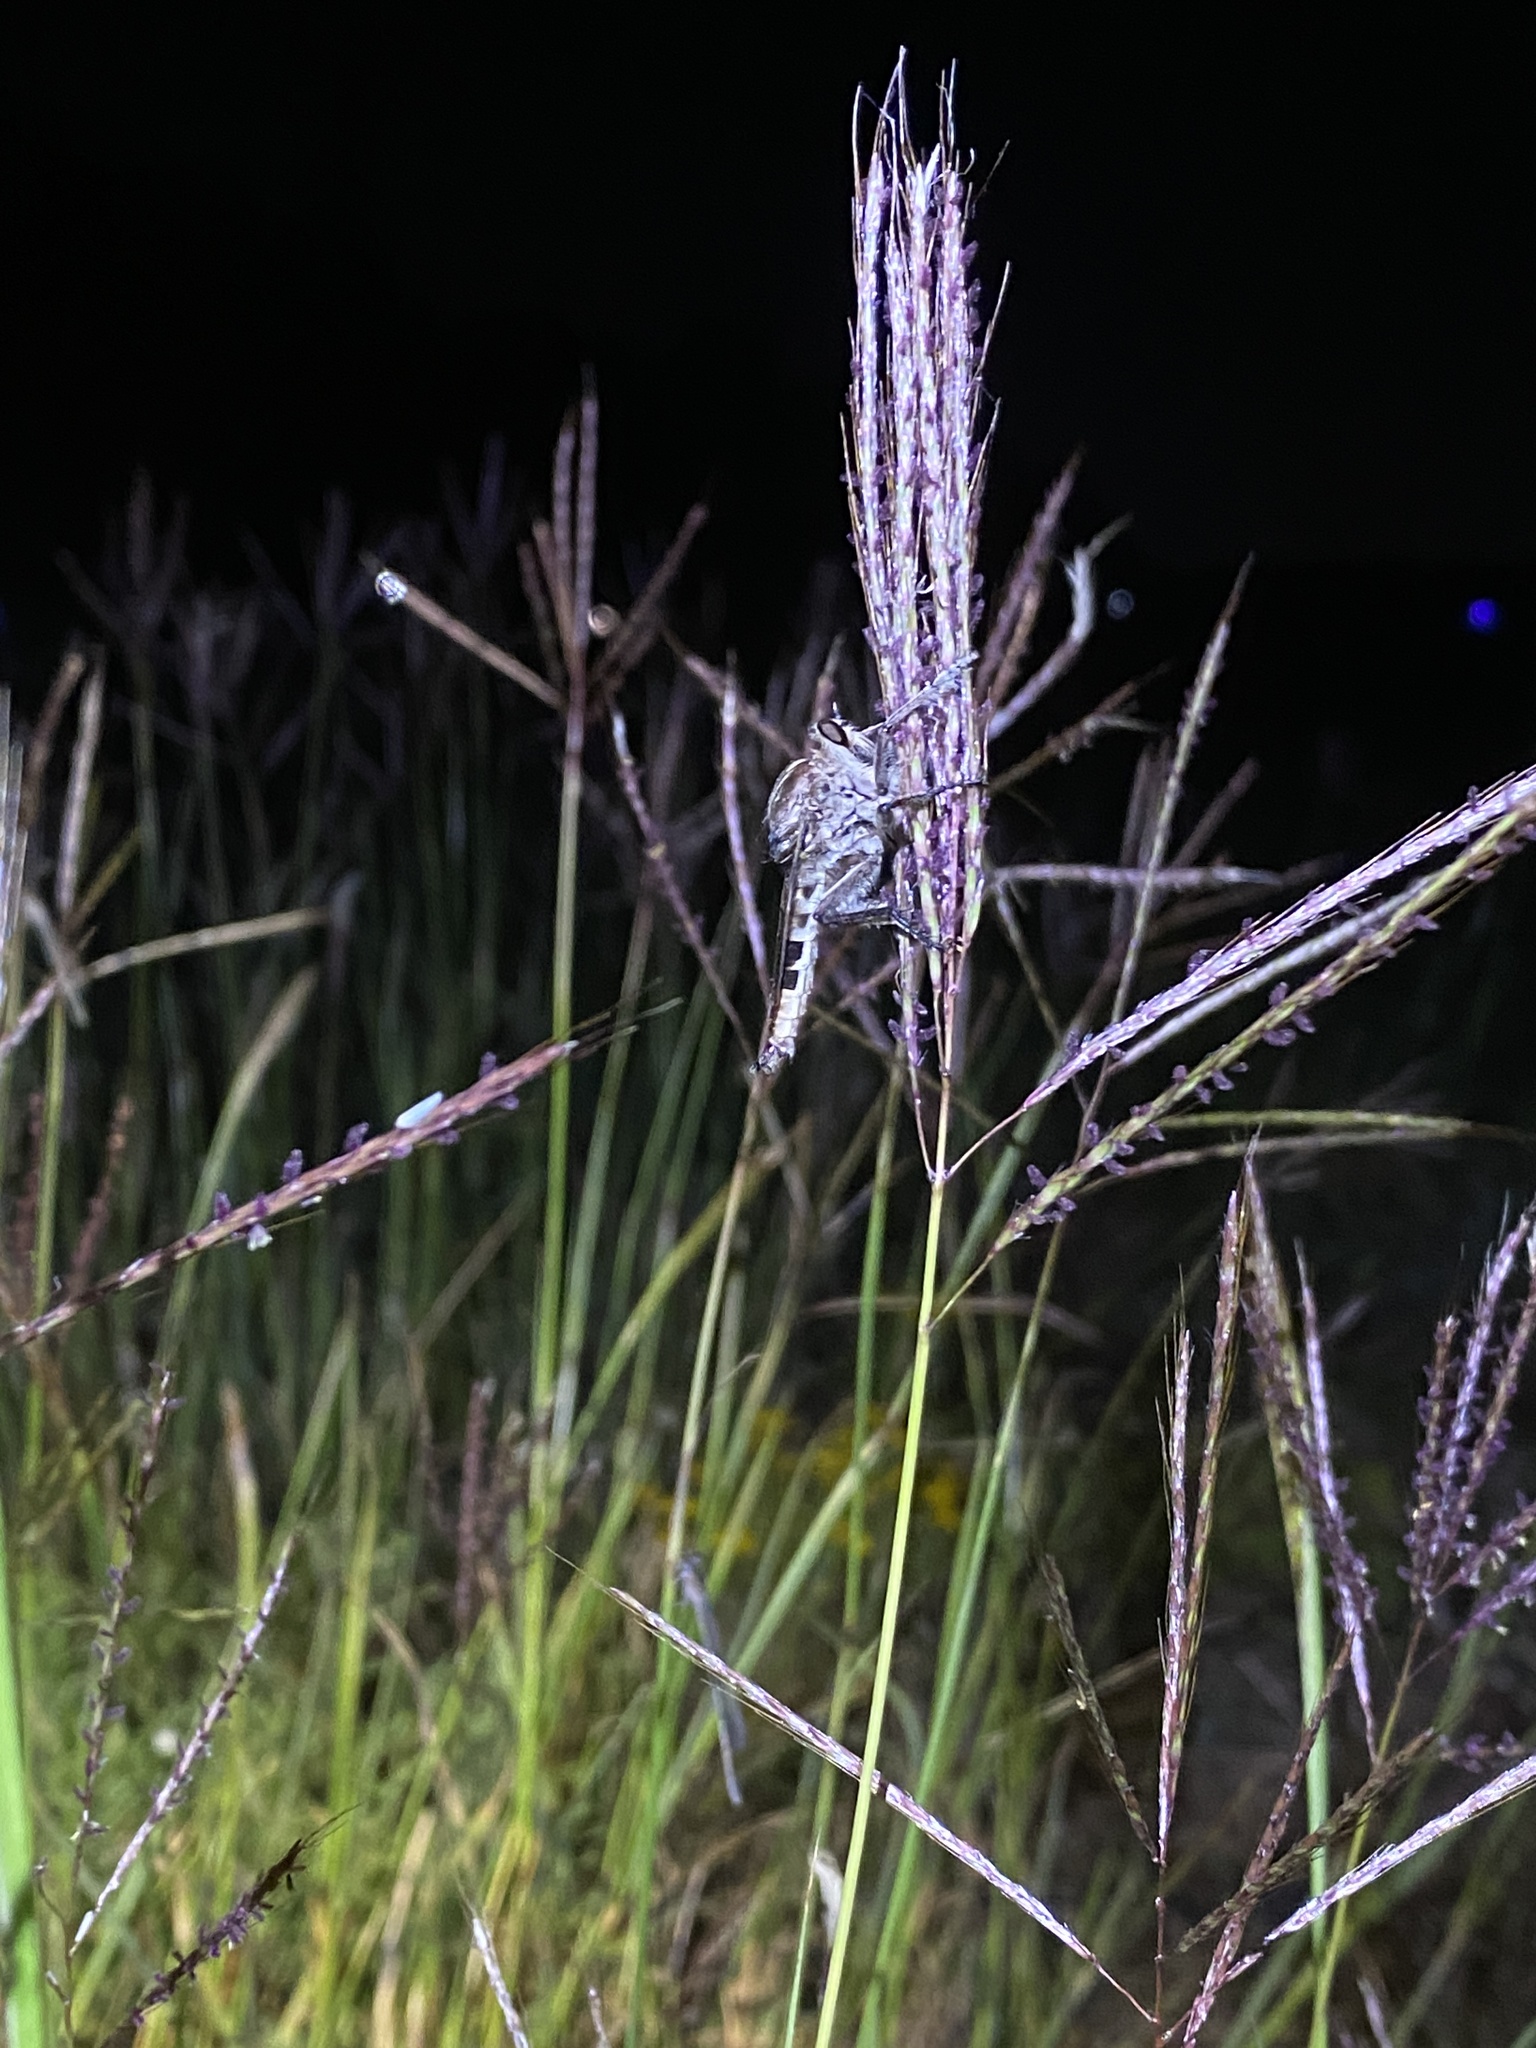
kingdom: Animalia
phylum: Arthropoda
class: Insecta
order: Diptera
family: Asilidae
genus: Triorla
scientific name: Triorla interrupta
